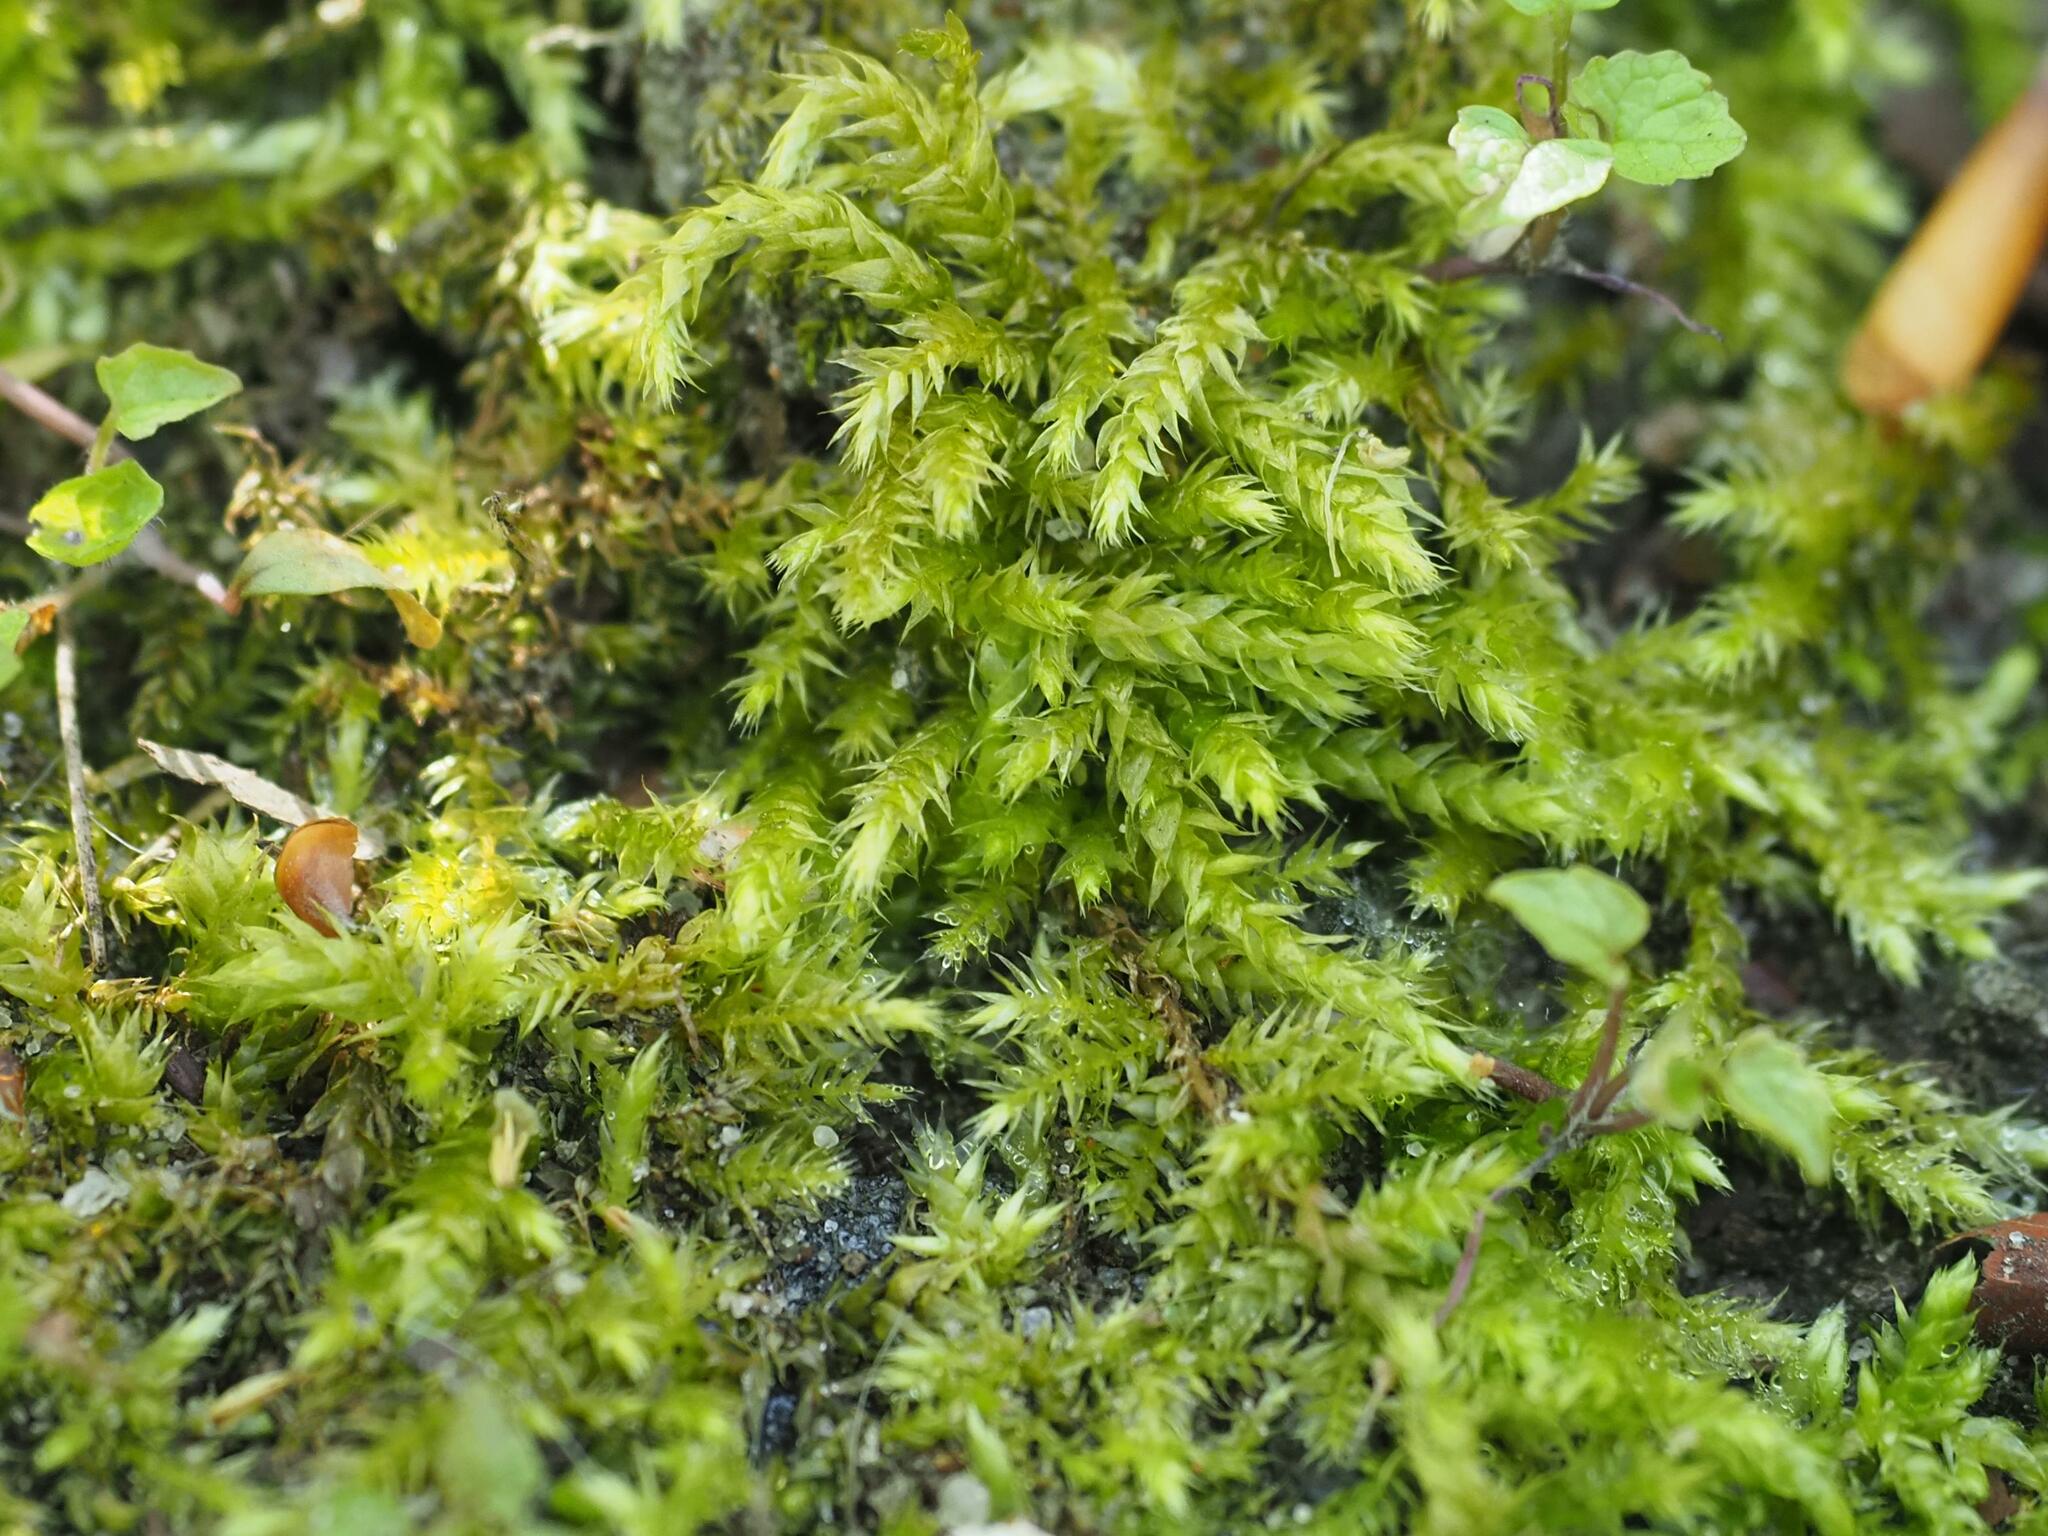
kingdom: Plantae
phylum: Bryophyta
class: Bryopsida
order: Hypnales
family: Brachytheciaceae
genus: Brachythecium
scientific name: Brachythecium rutabulum
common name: Rough-stalked feather-moss
